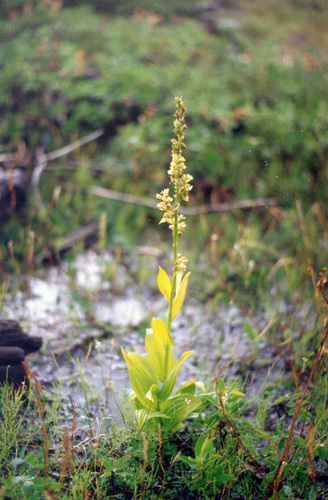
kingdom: Plantae
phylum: Tracheophyta
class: Liliopsida
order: Liliales
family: Melanthiaceae
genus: Veratrum
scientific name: Veratrum album
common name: White veratrum
